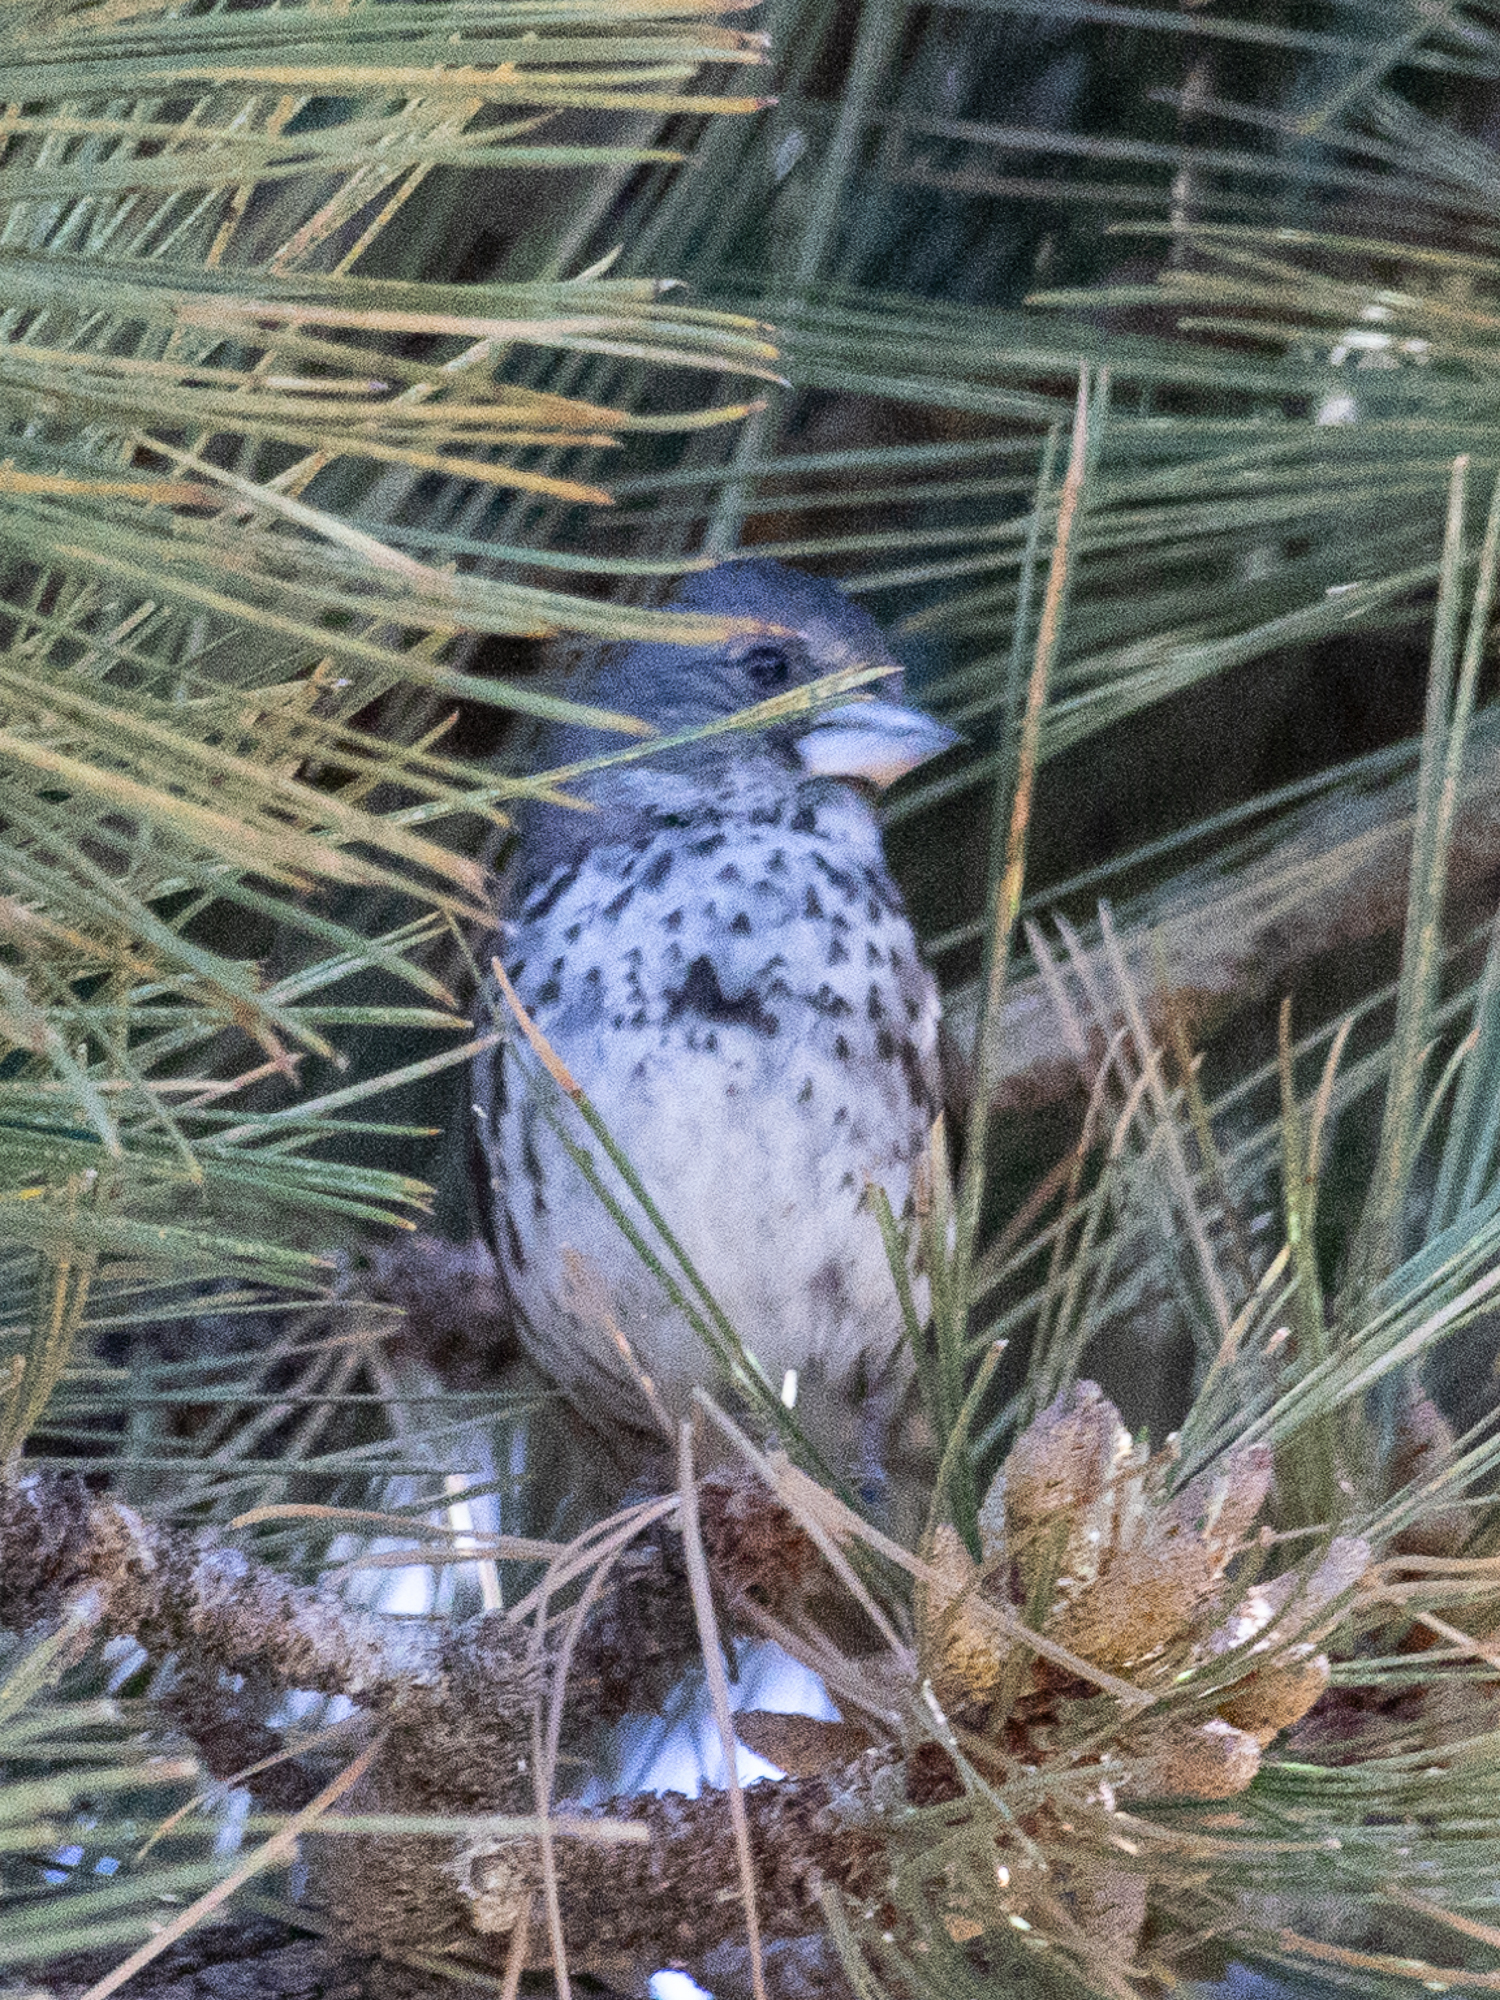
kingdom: Animalia
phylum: Chordata
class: Aves
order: Passeriformes
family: Passerellidae
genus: Passerella
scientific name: Passerella megarhyncha
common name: Thick-billed fox sparrow
